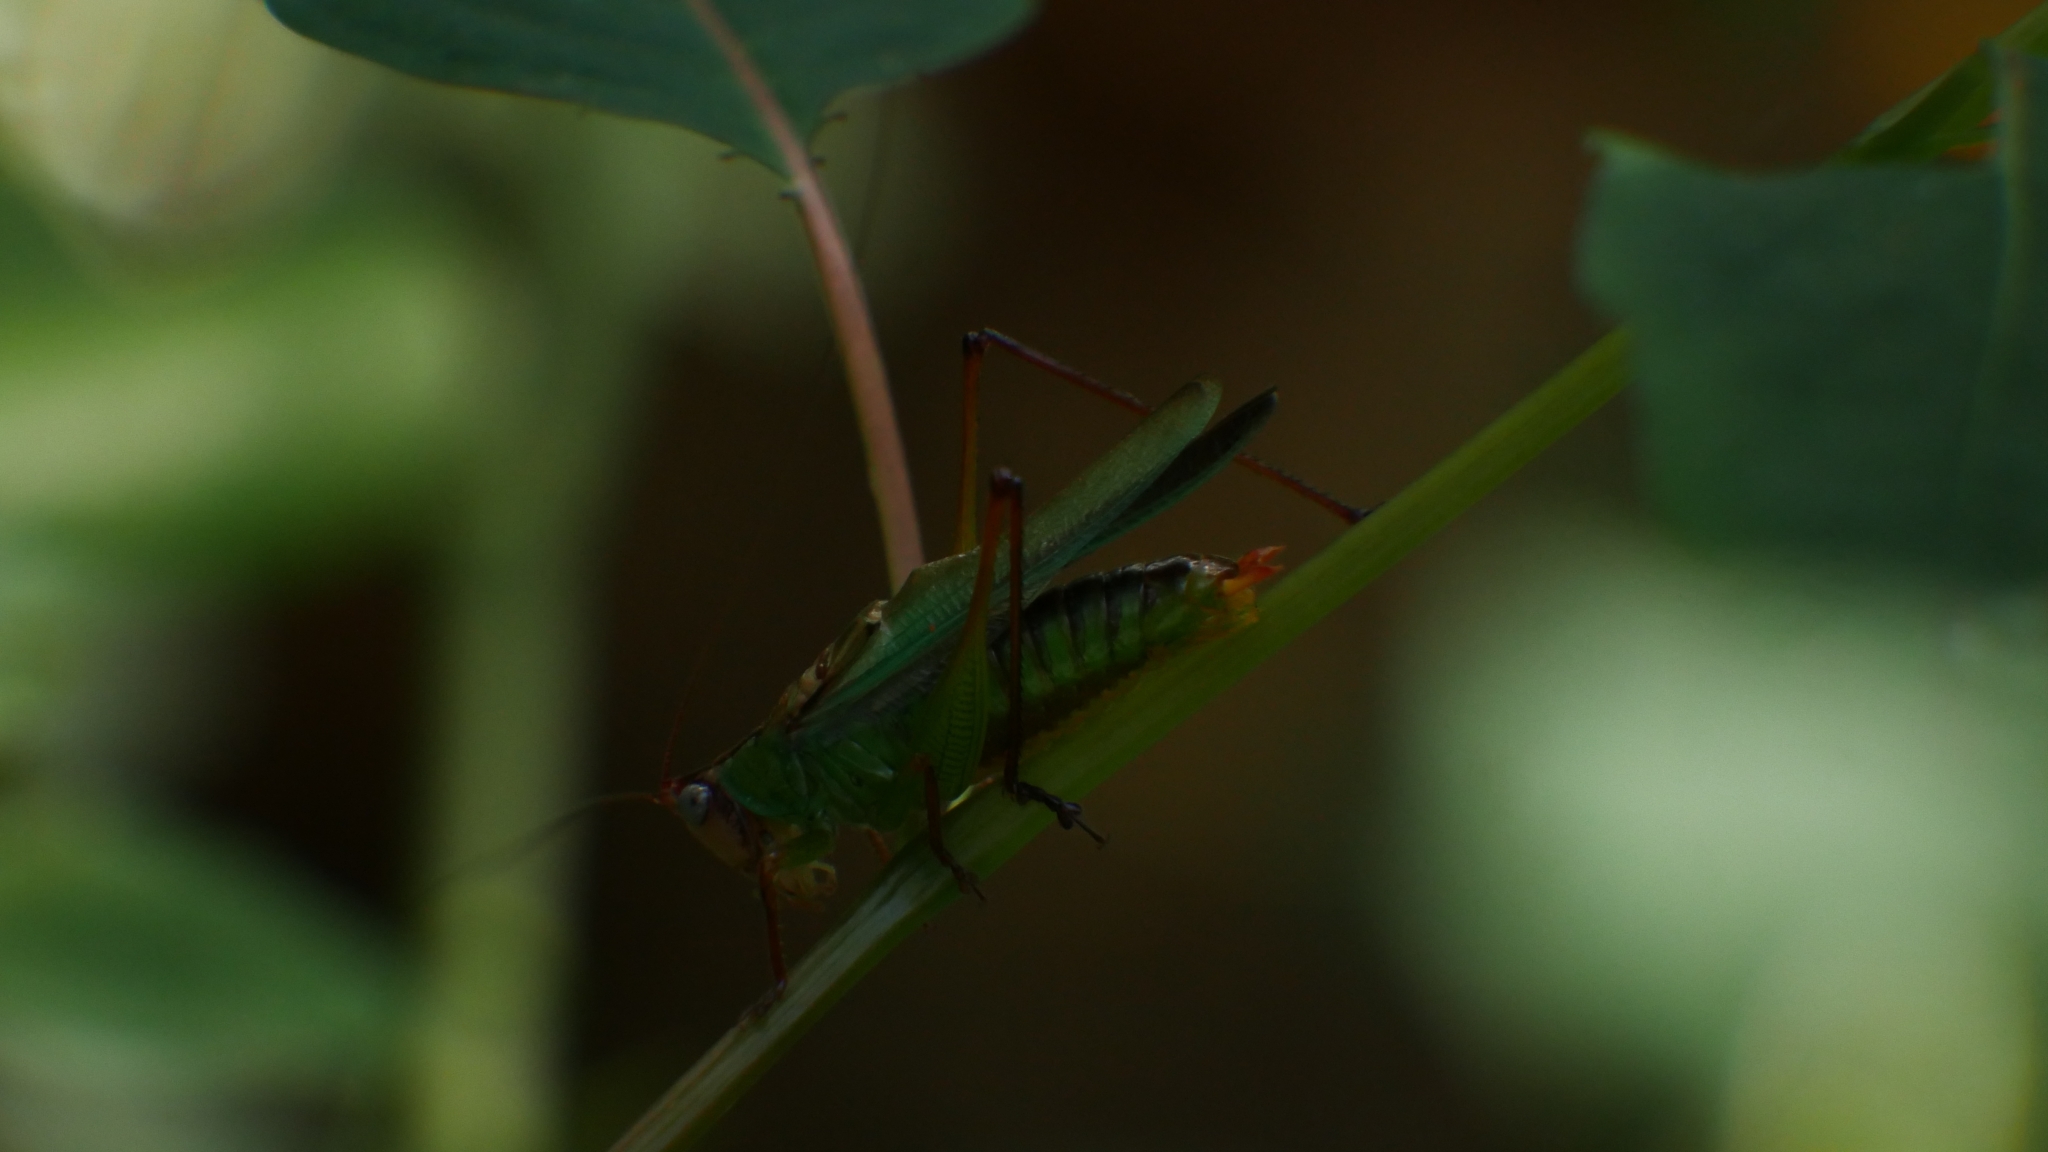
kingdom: Animalia
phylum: Arthropoda
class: Insecta
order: Orthoptera
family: Tettigoniidae
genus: Orchelimum
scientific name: Orchelimum pulchellum
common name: Handsome meadow katydid
